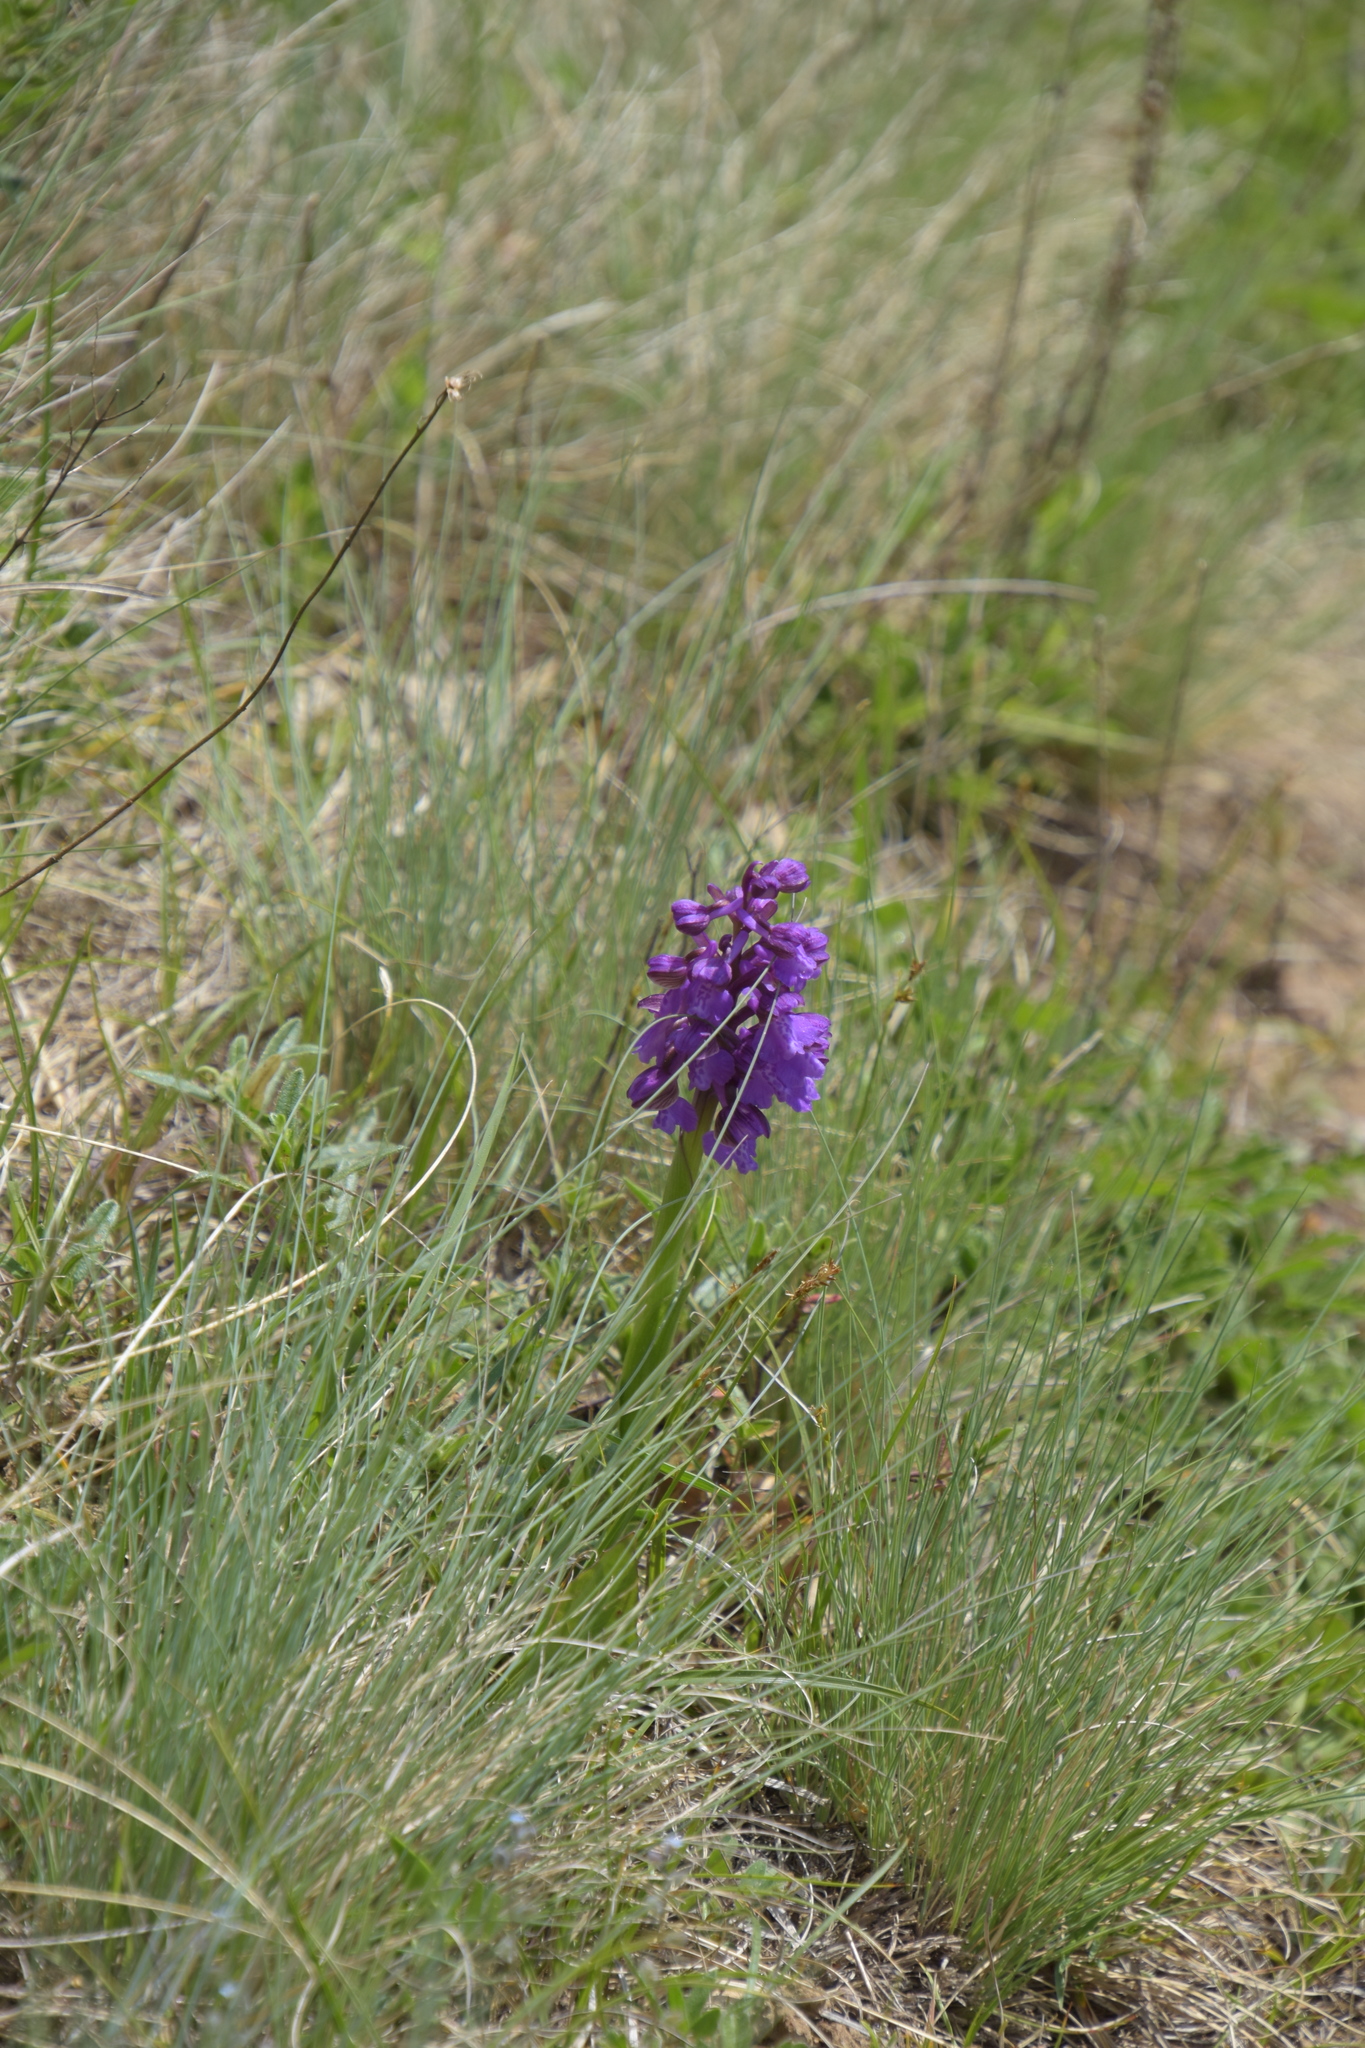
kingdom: Plantae
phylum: Tracheophyta
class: Liliopsida
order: Asparagales
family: Orchidaceae
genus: Anacamptis
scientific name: Anacamptis morio
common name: Green-winged orchid
